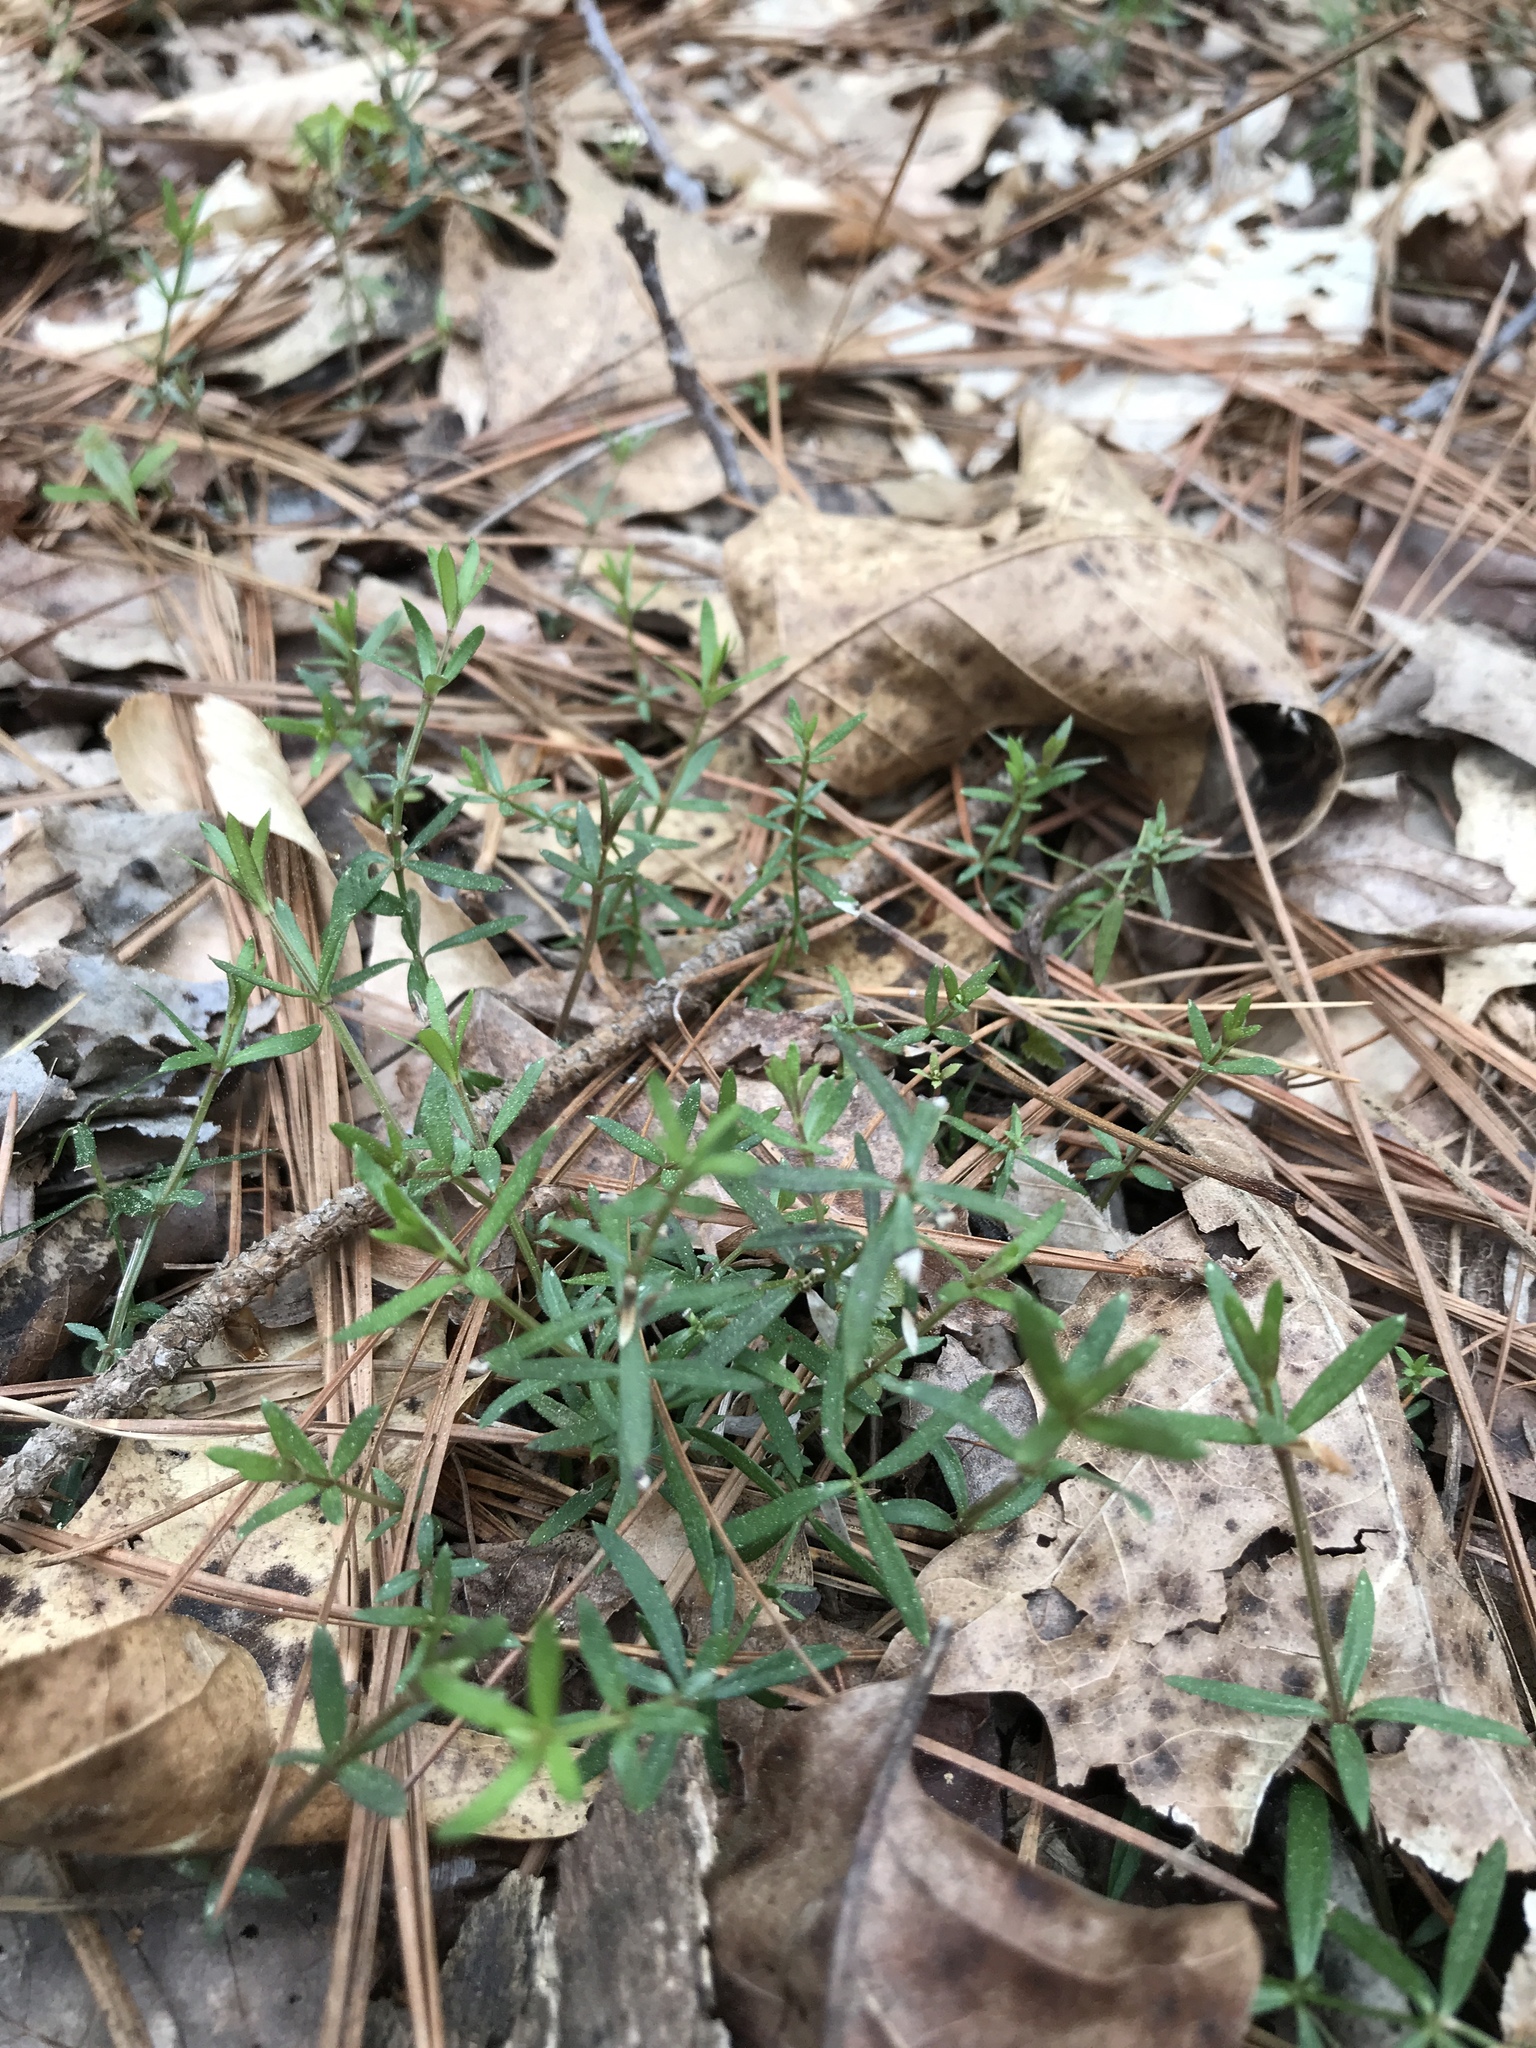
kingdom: Plantae
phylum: Tracheophyta
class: Magnoliopsida
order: Gentianales
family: Rubiaceae
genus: Galium
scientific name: Galium uniflorum
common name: One-flower bedstraw
